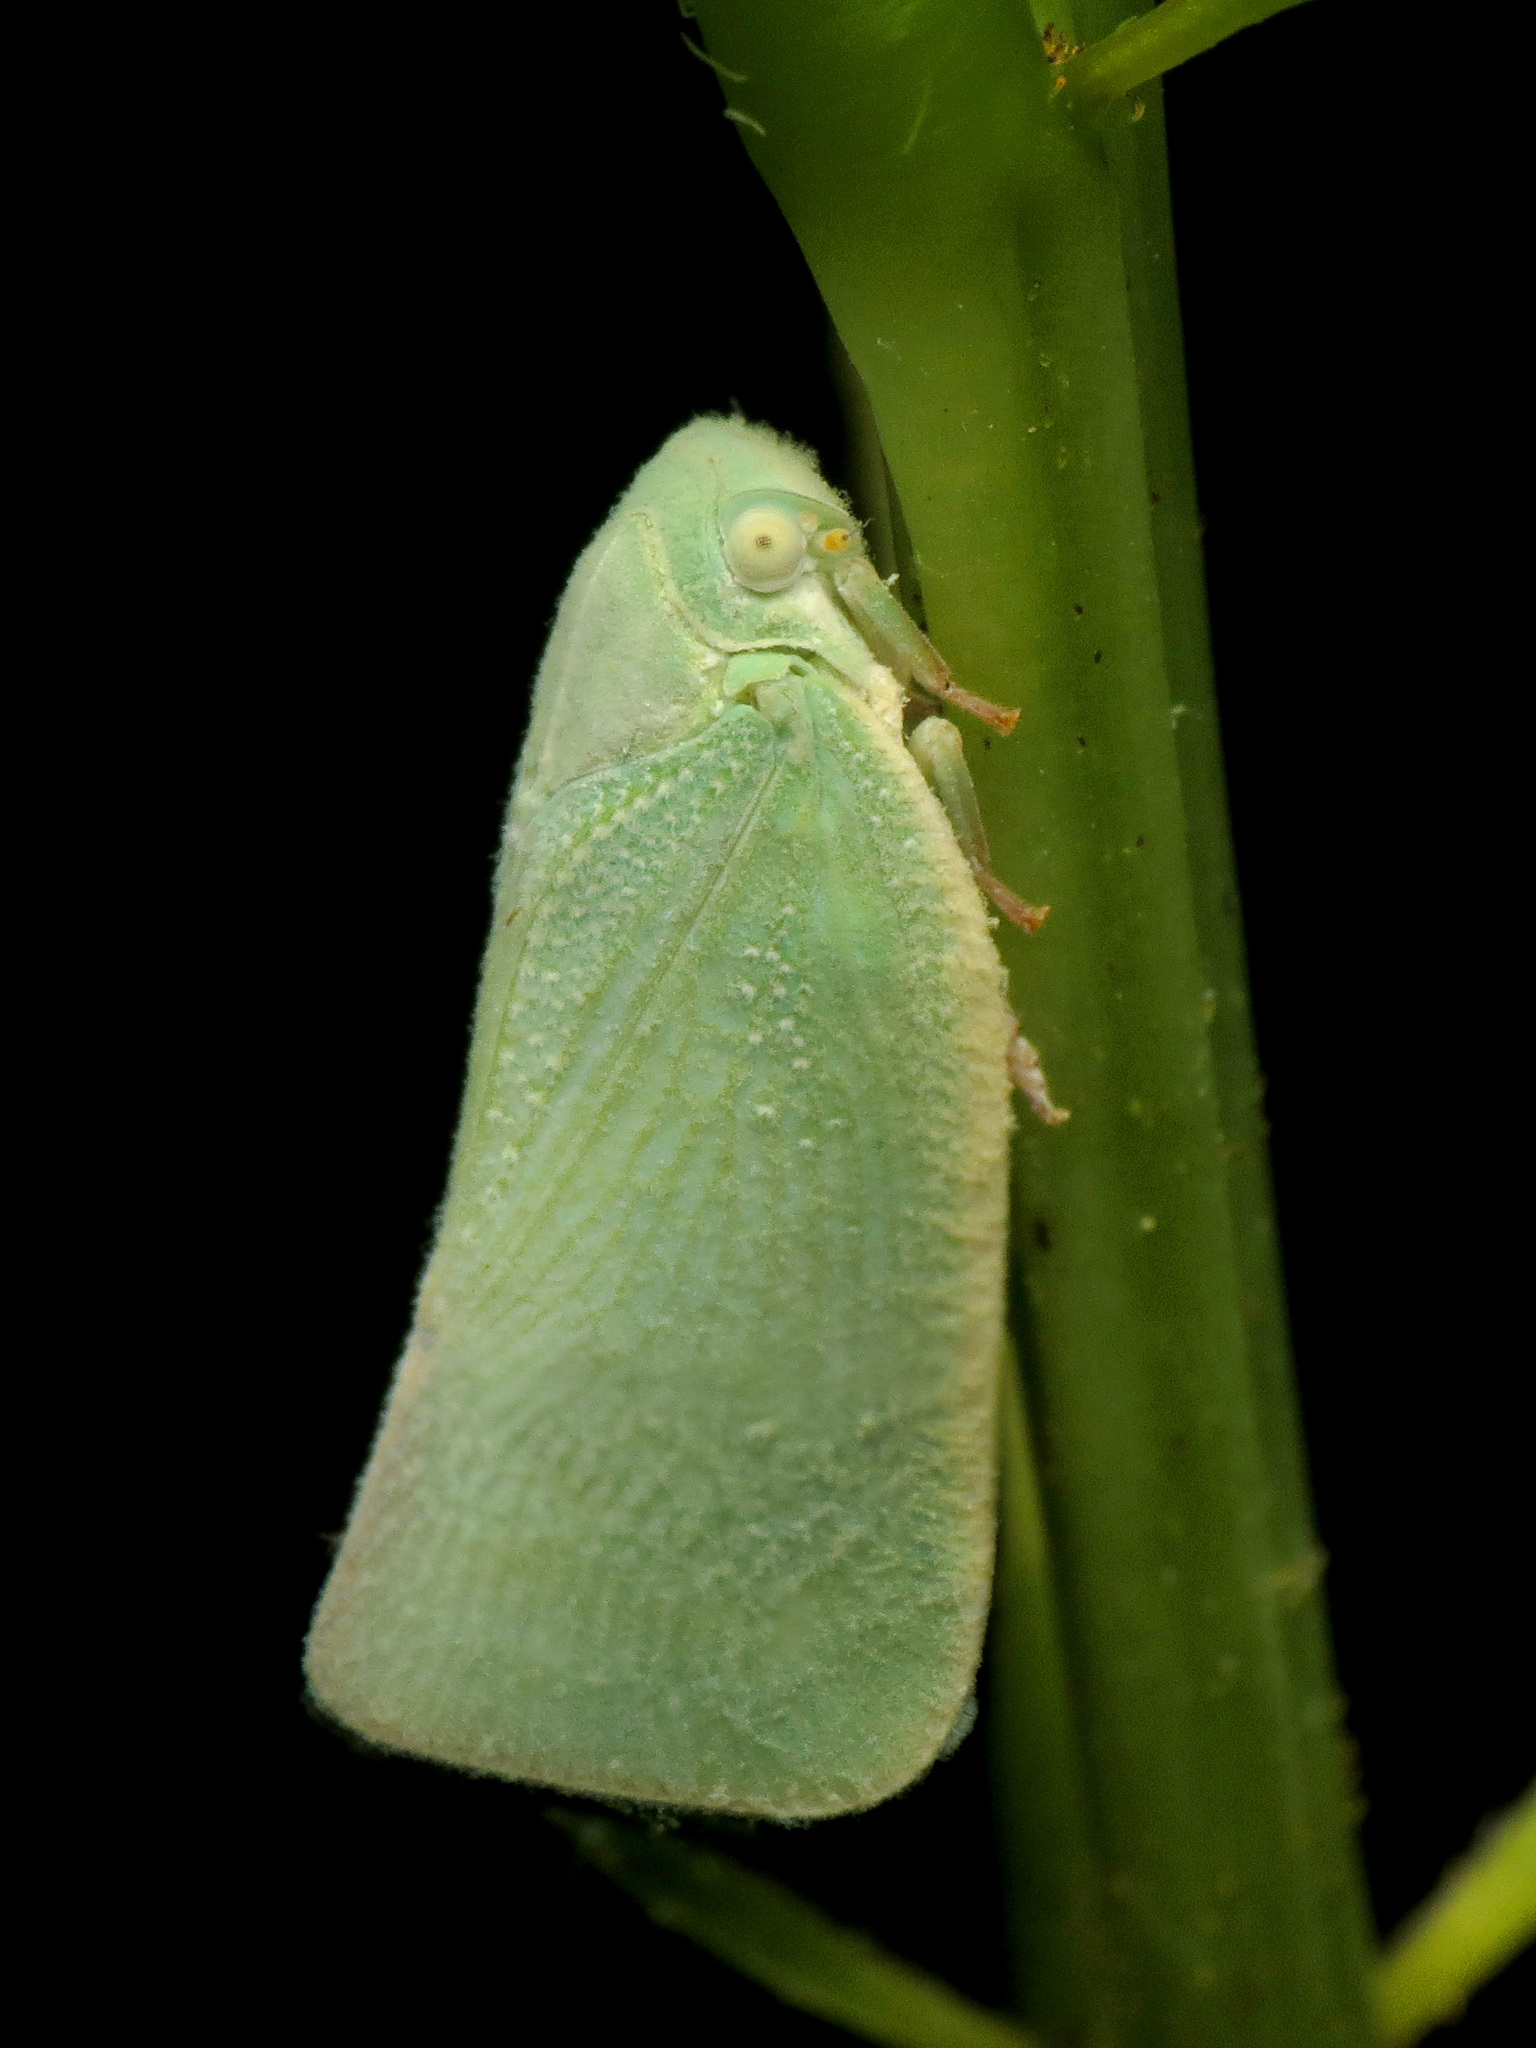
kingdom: Animalia
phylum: Arthropoda
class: Insecta
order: Hemiptera
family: Flatidae
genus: Flatormenis
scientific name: Flatormenis proxima
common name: Northern flatid planthopper
